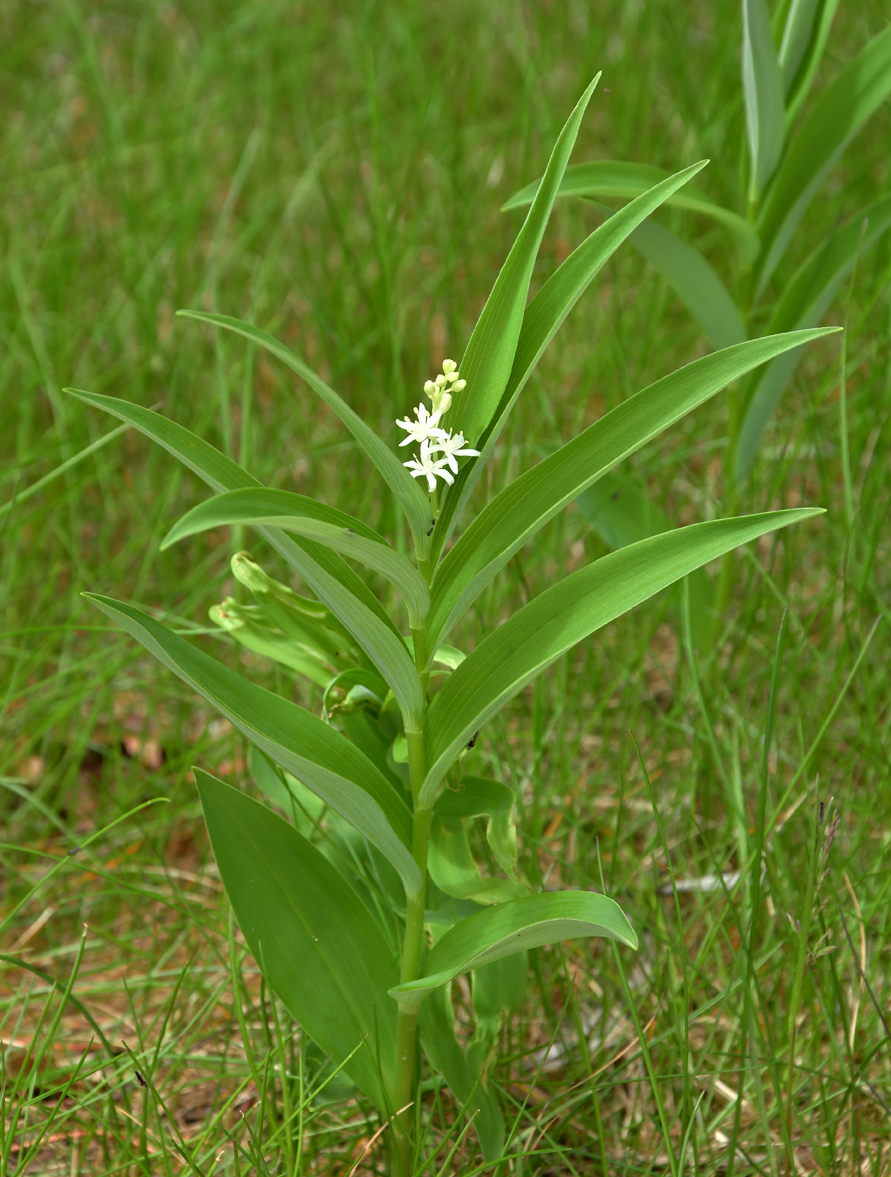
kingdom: Plantae
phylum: Tracheophyta
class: Liliopsida
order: Asparagales
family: Asparagaceae
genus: Maianthemum
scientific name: Maianthemum stellatum
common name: Little false solomon's seal
